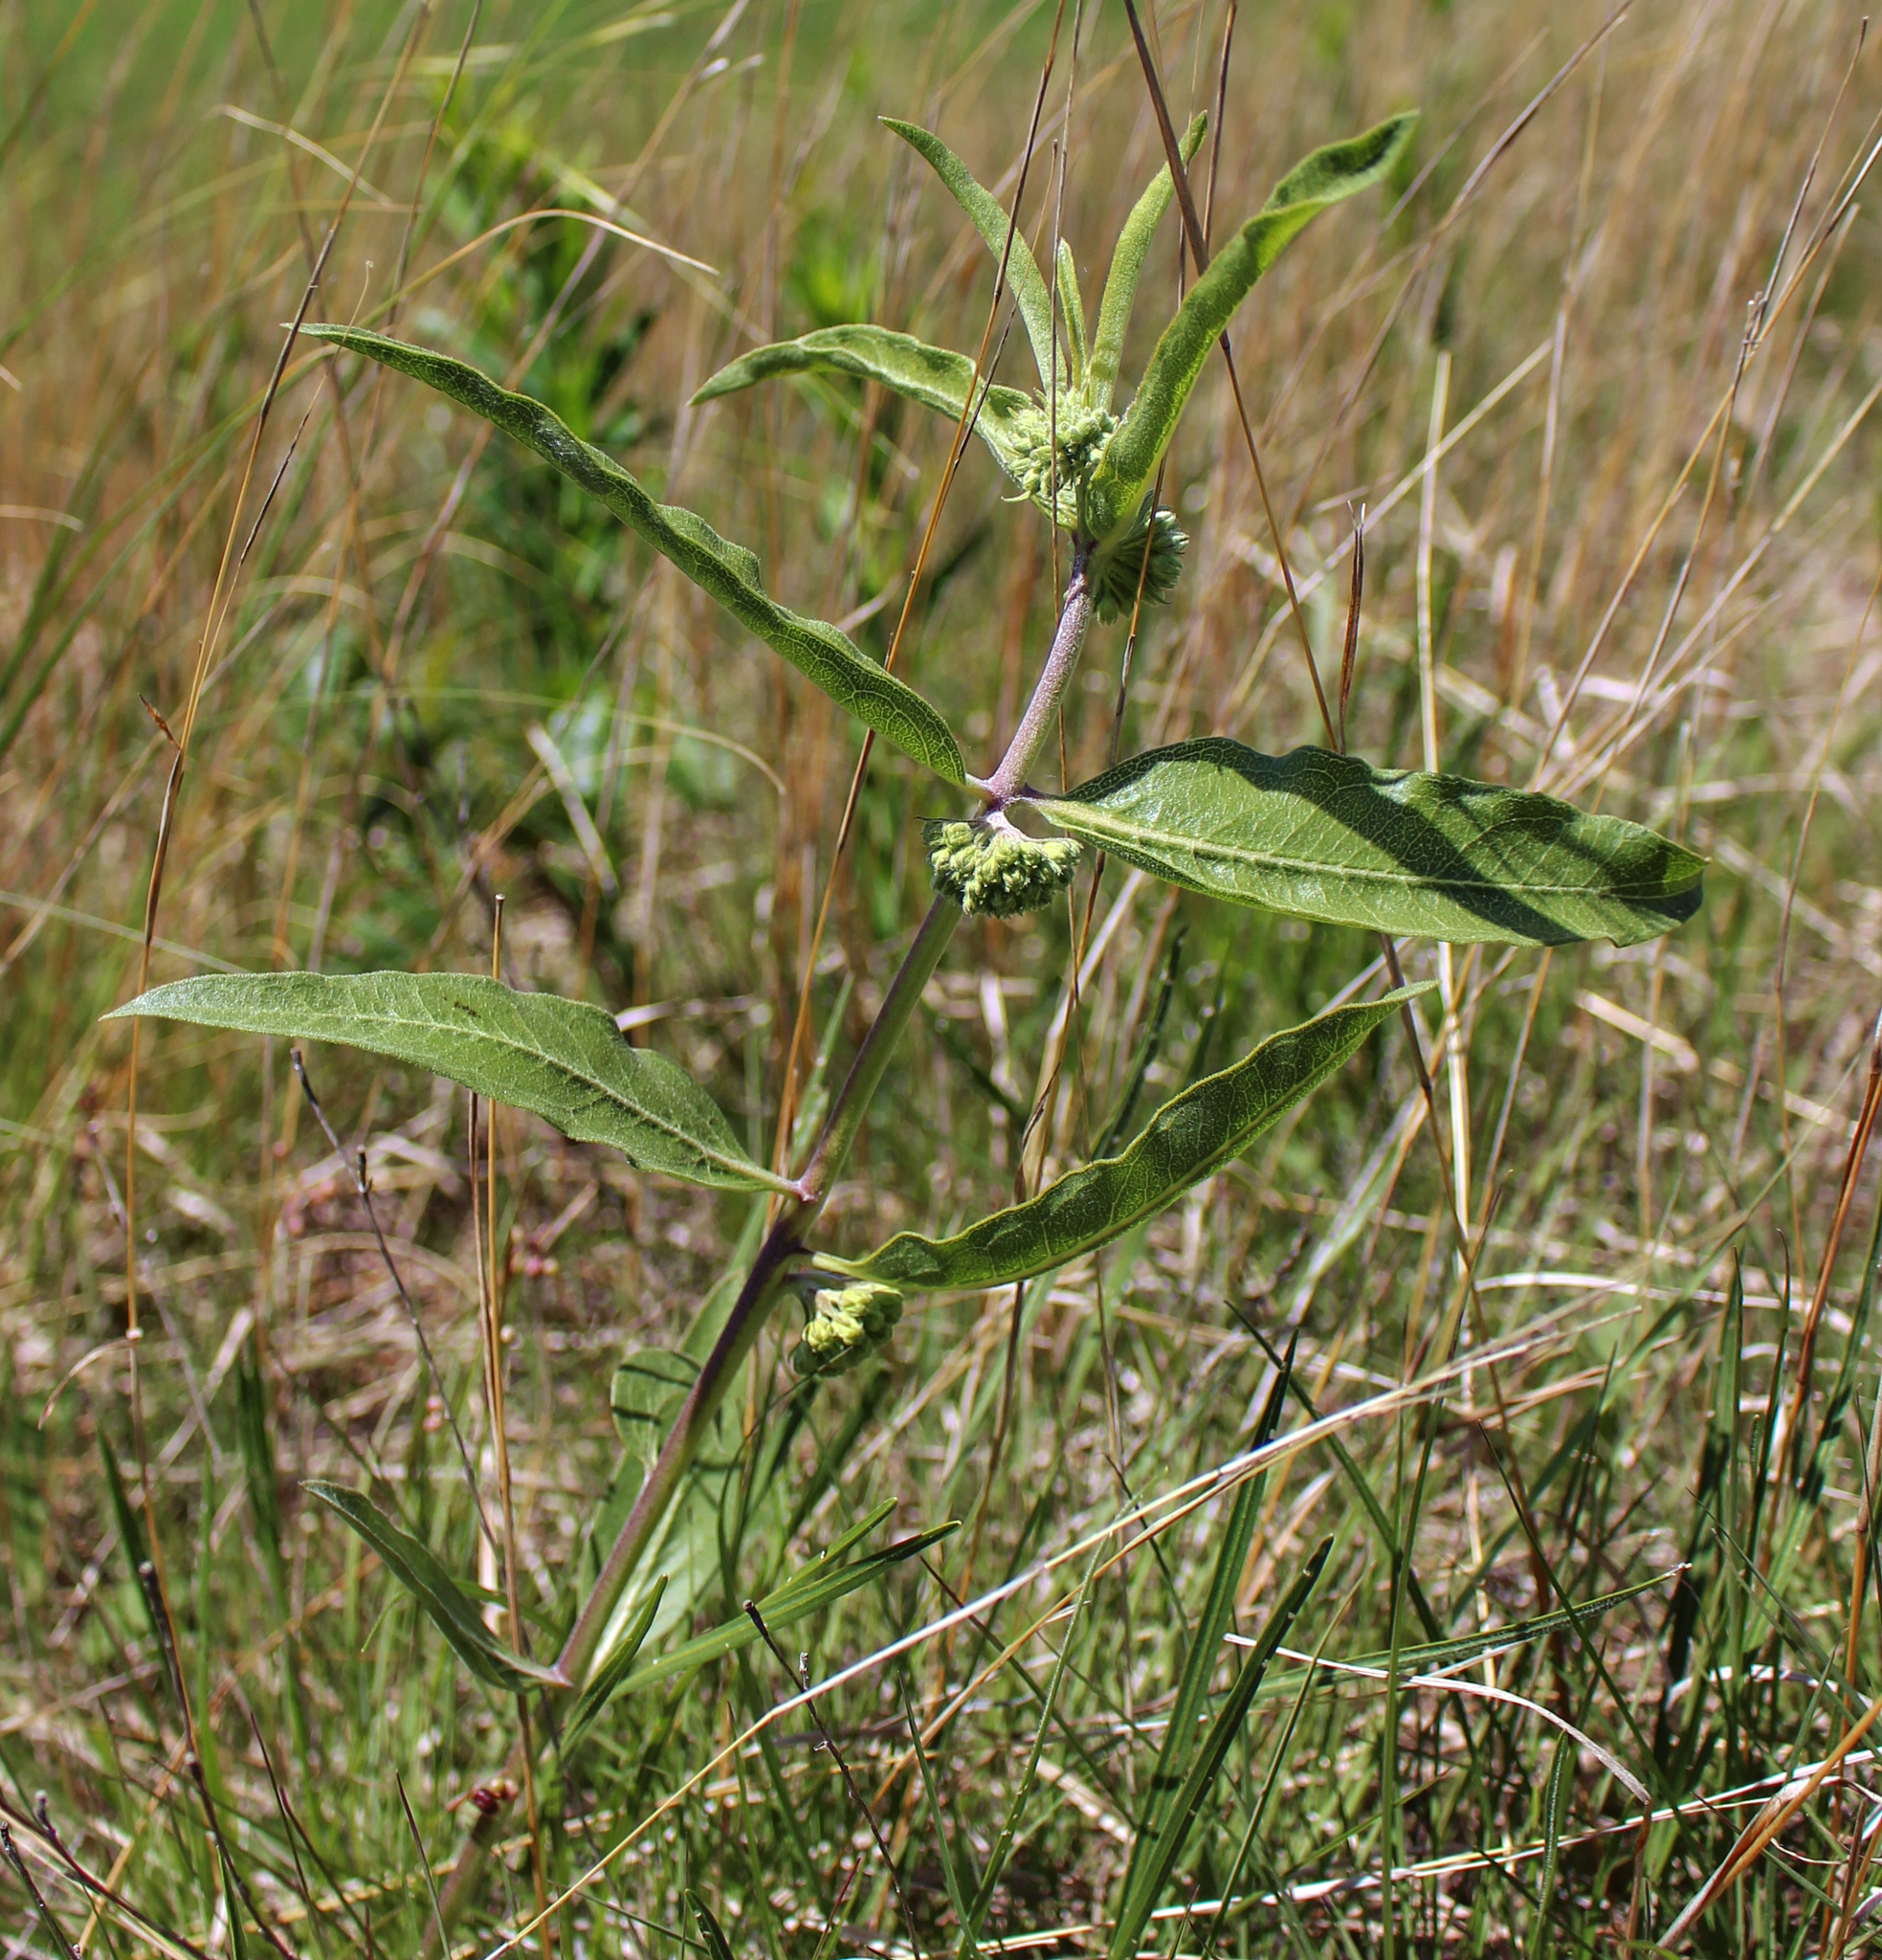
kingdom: Plantae
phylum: Tracheophyta
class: Magnoliopsida
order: Gentianales
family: Apocynaceae
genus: Asclepias
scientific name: Asclepias viridiflora
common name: Green comet milkweed
